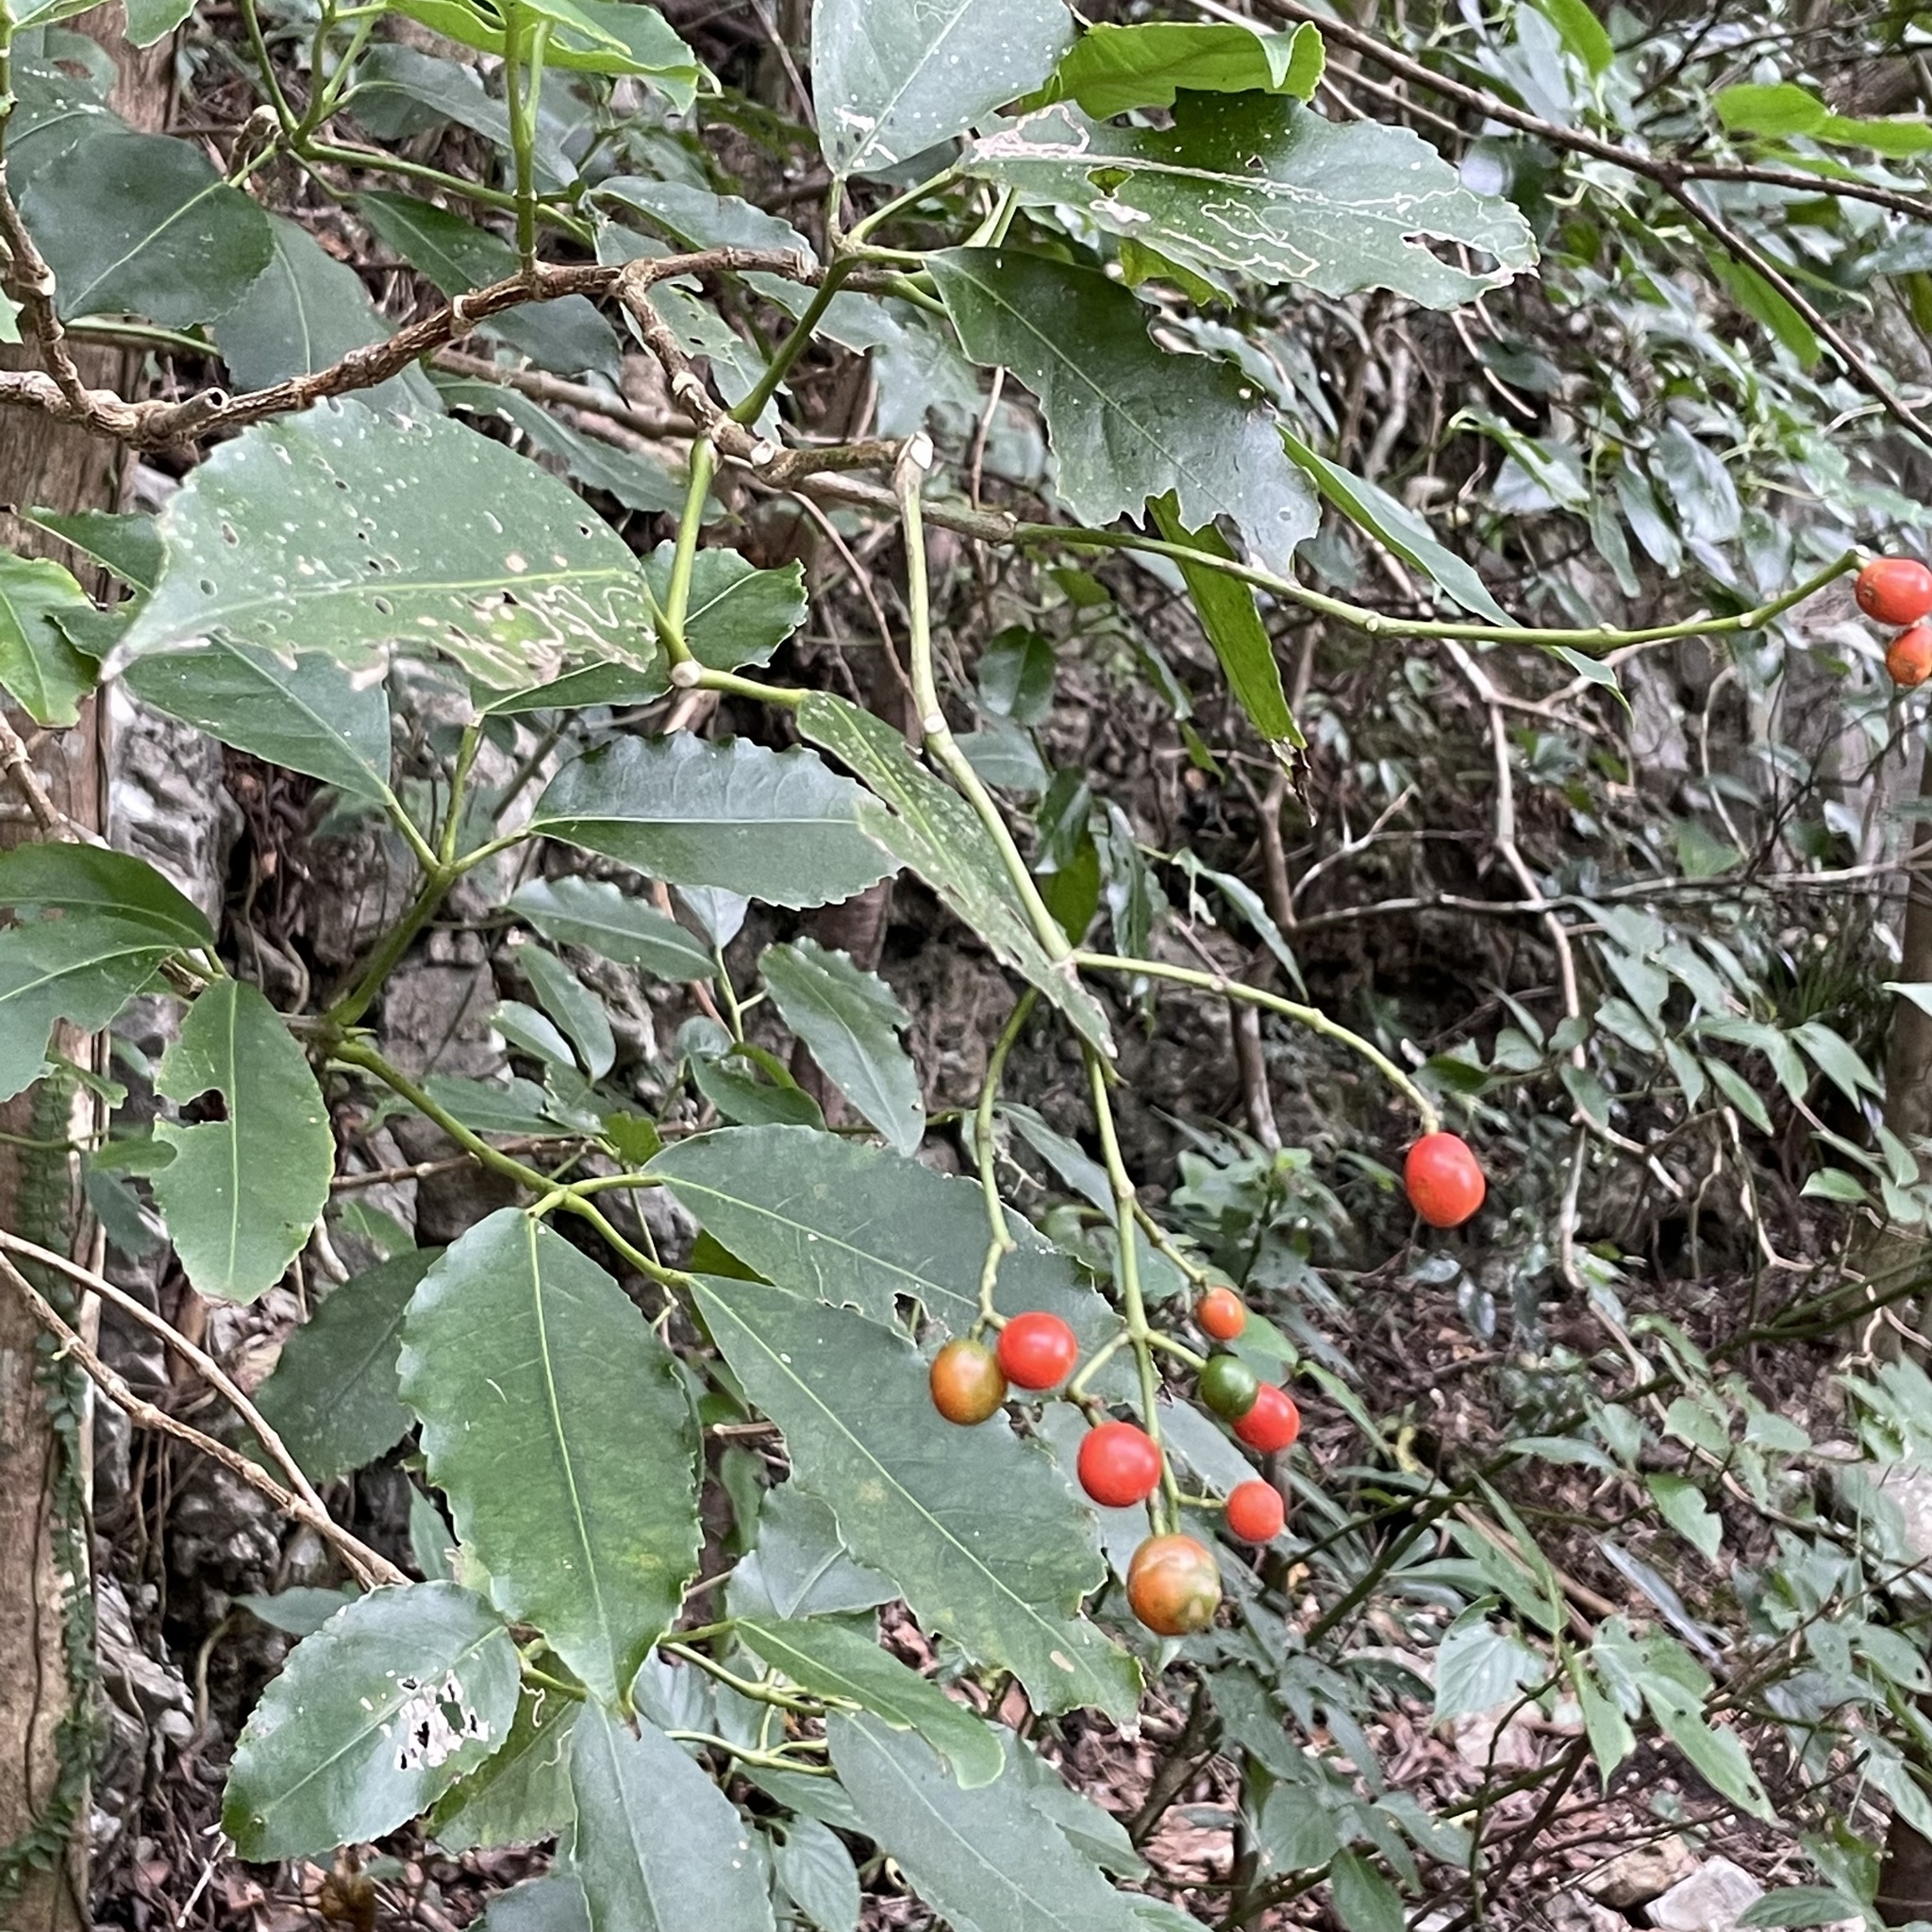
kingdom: Plantae
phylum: Tracheophyta
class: Magnoliopsida
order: Crossosomatales
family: Staphyleaceae
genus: Turpinia
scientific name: Turpinia ternata
